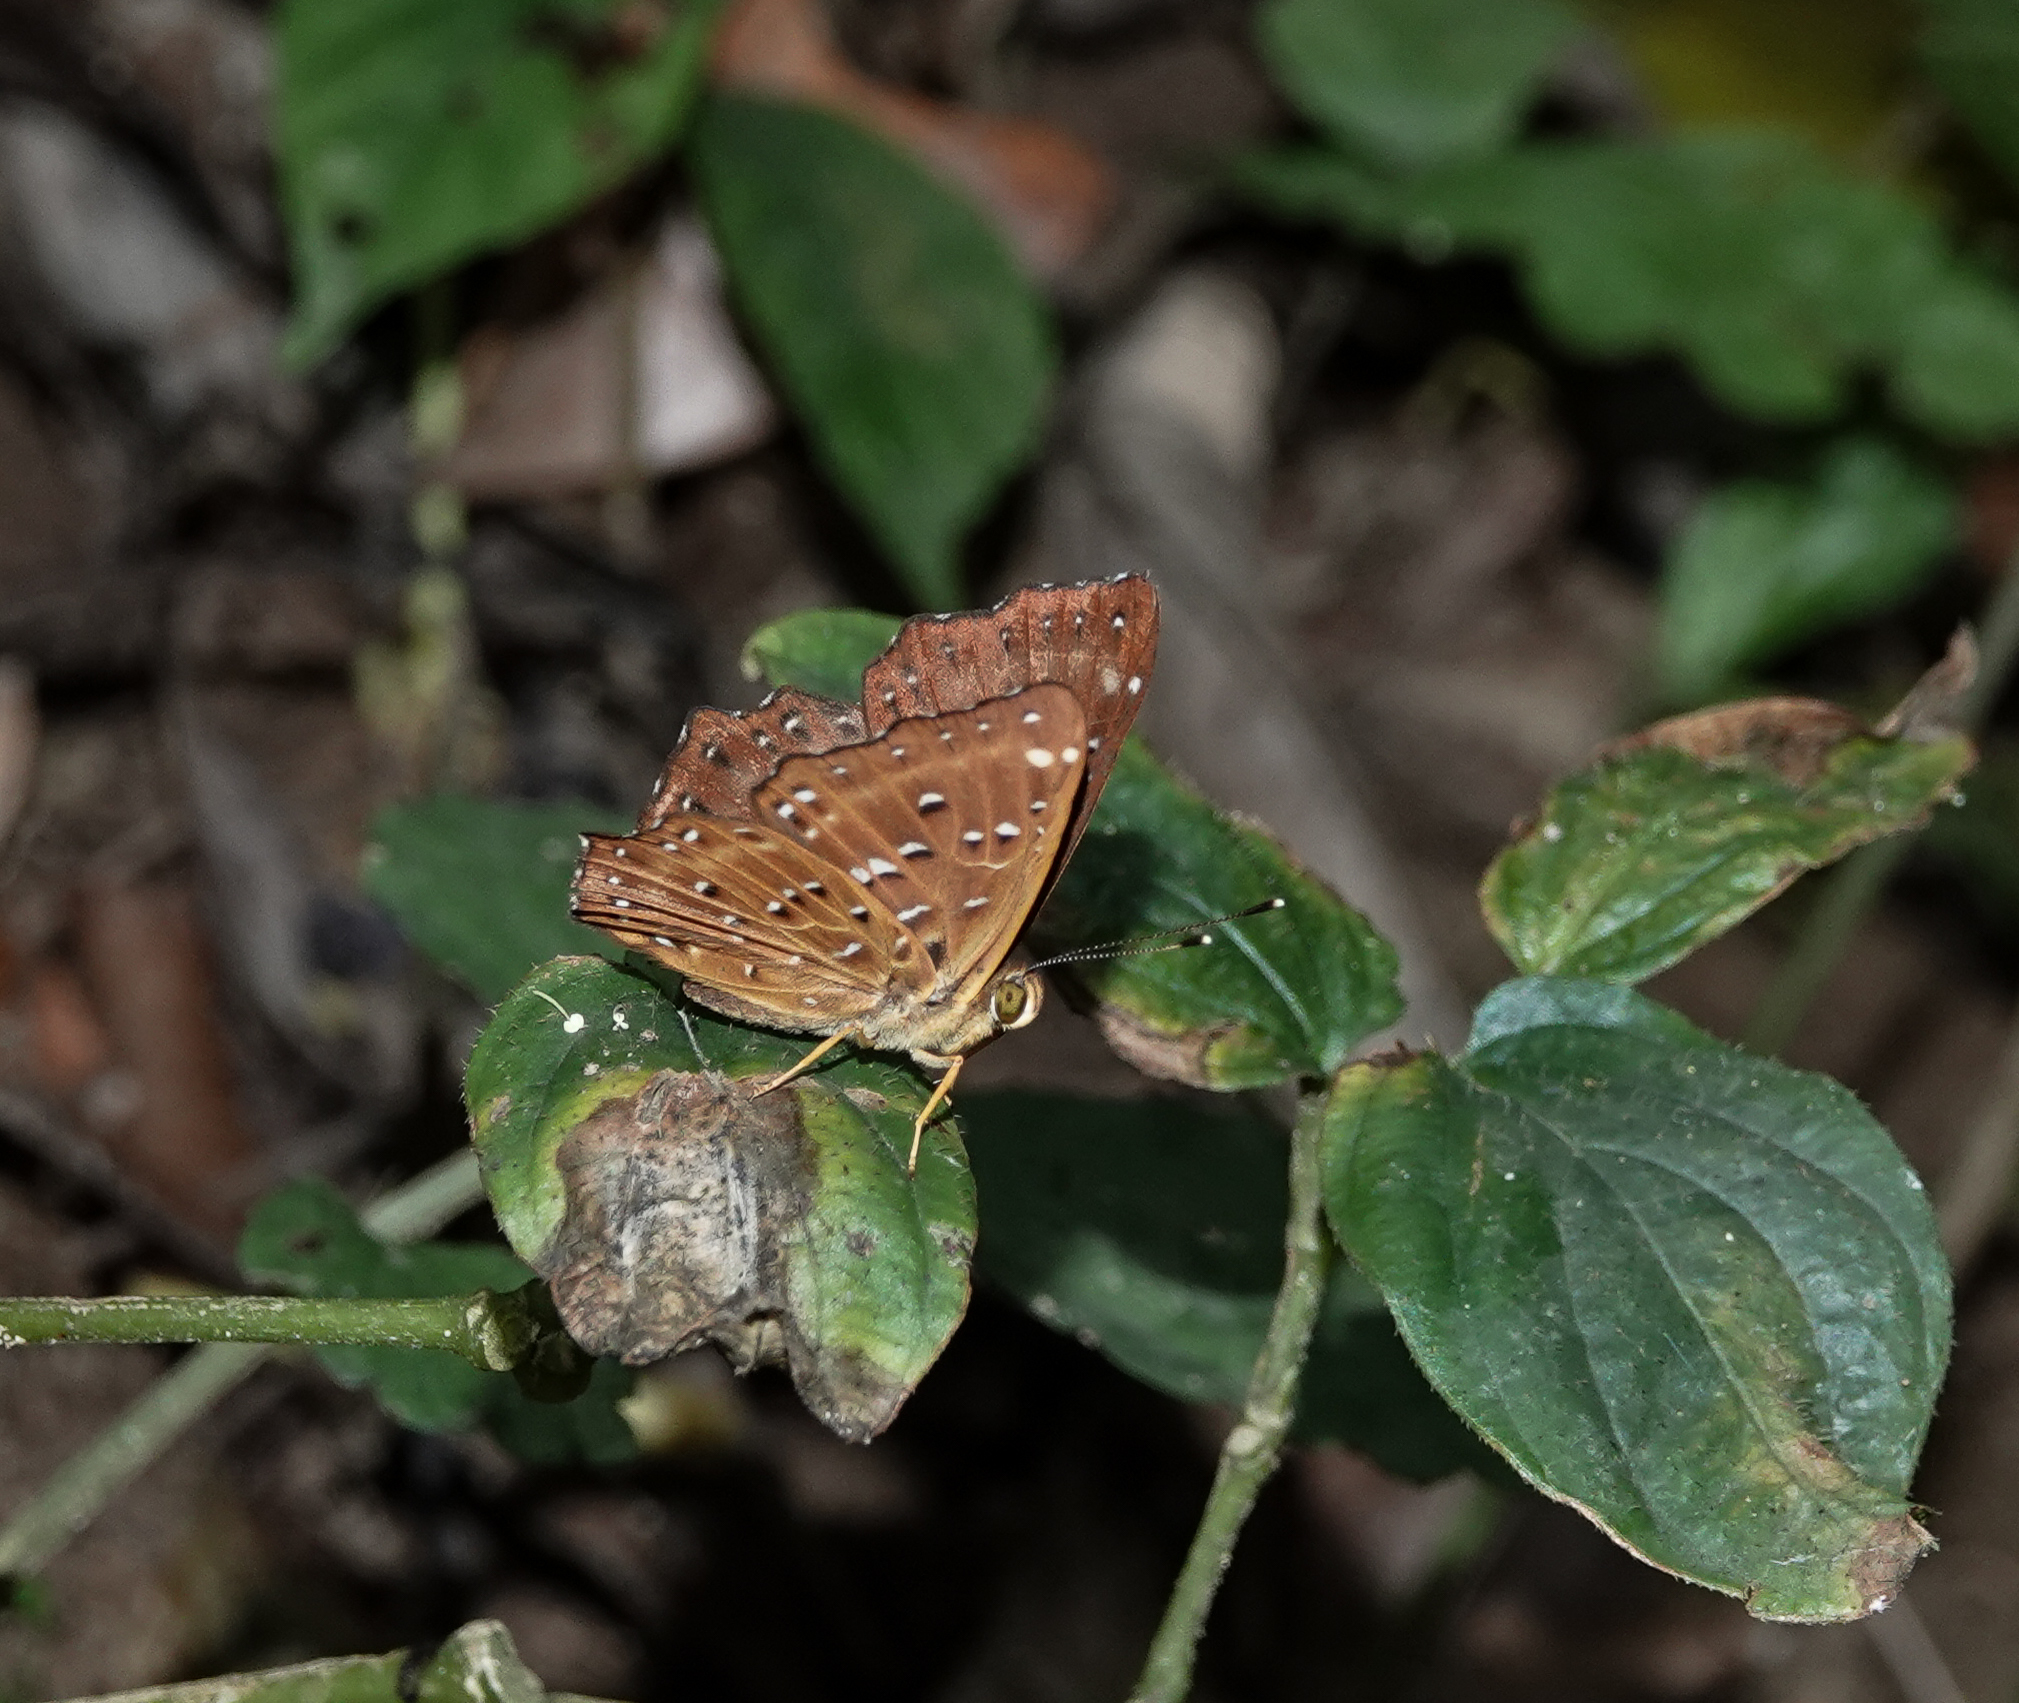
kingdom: Animalia
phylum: Arthropoda
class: Insecta
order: Lepidoptera
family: Riodinidae
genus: Zemeros
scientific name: Zemeros flegyas
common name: Punchinello
